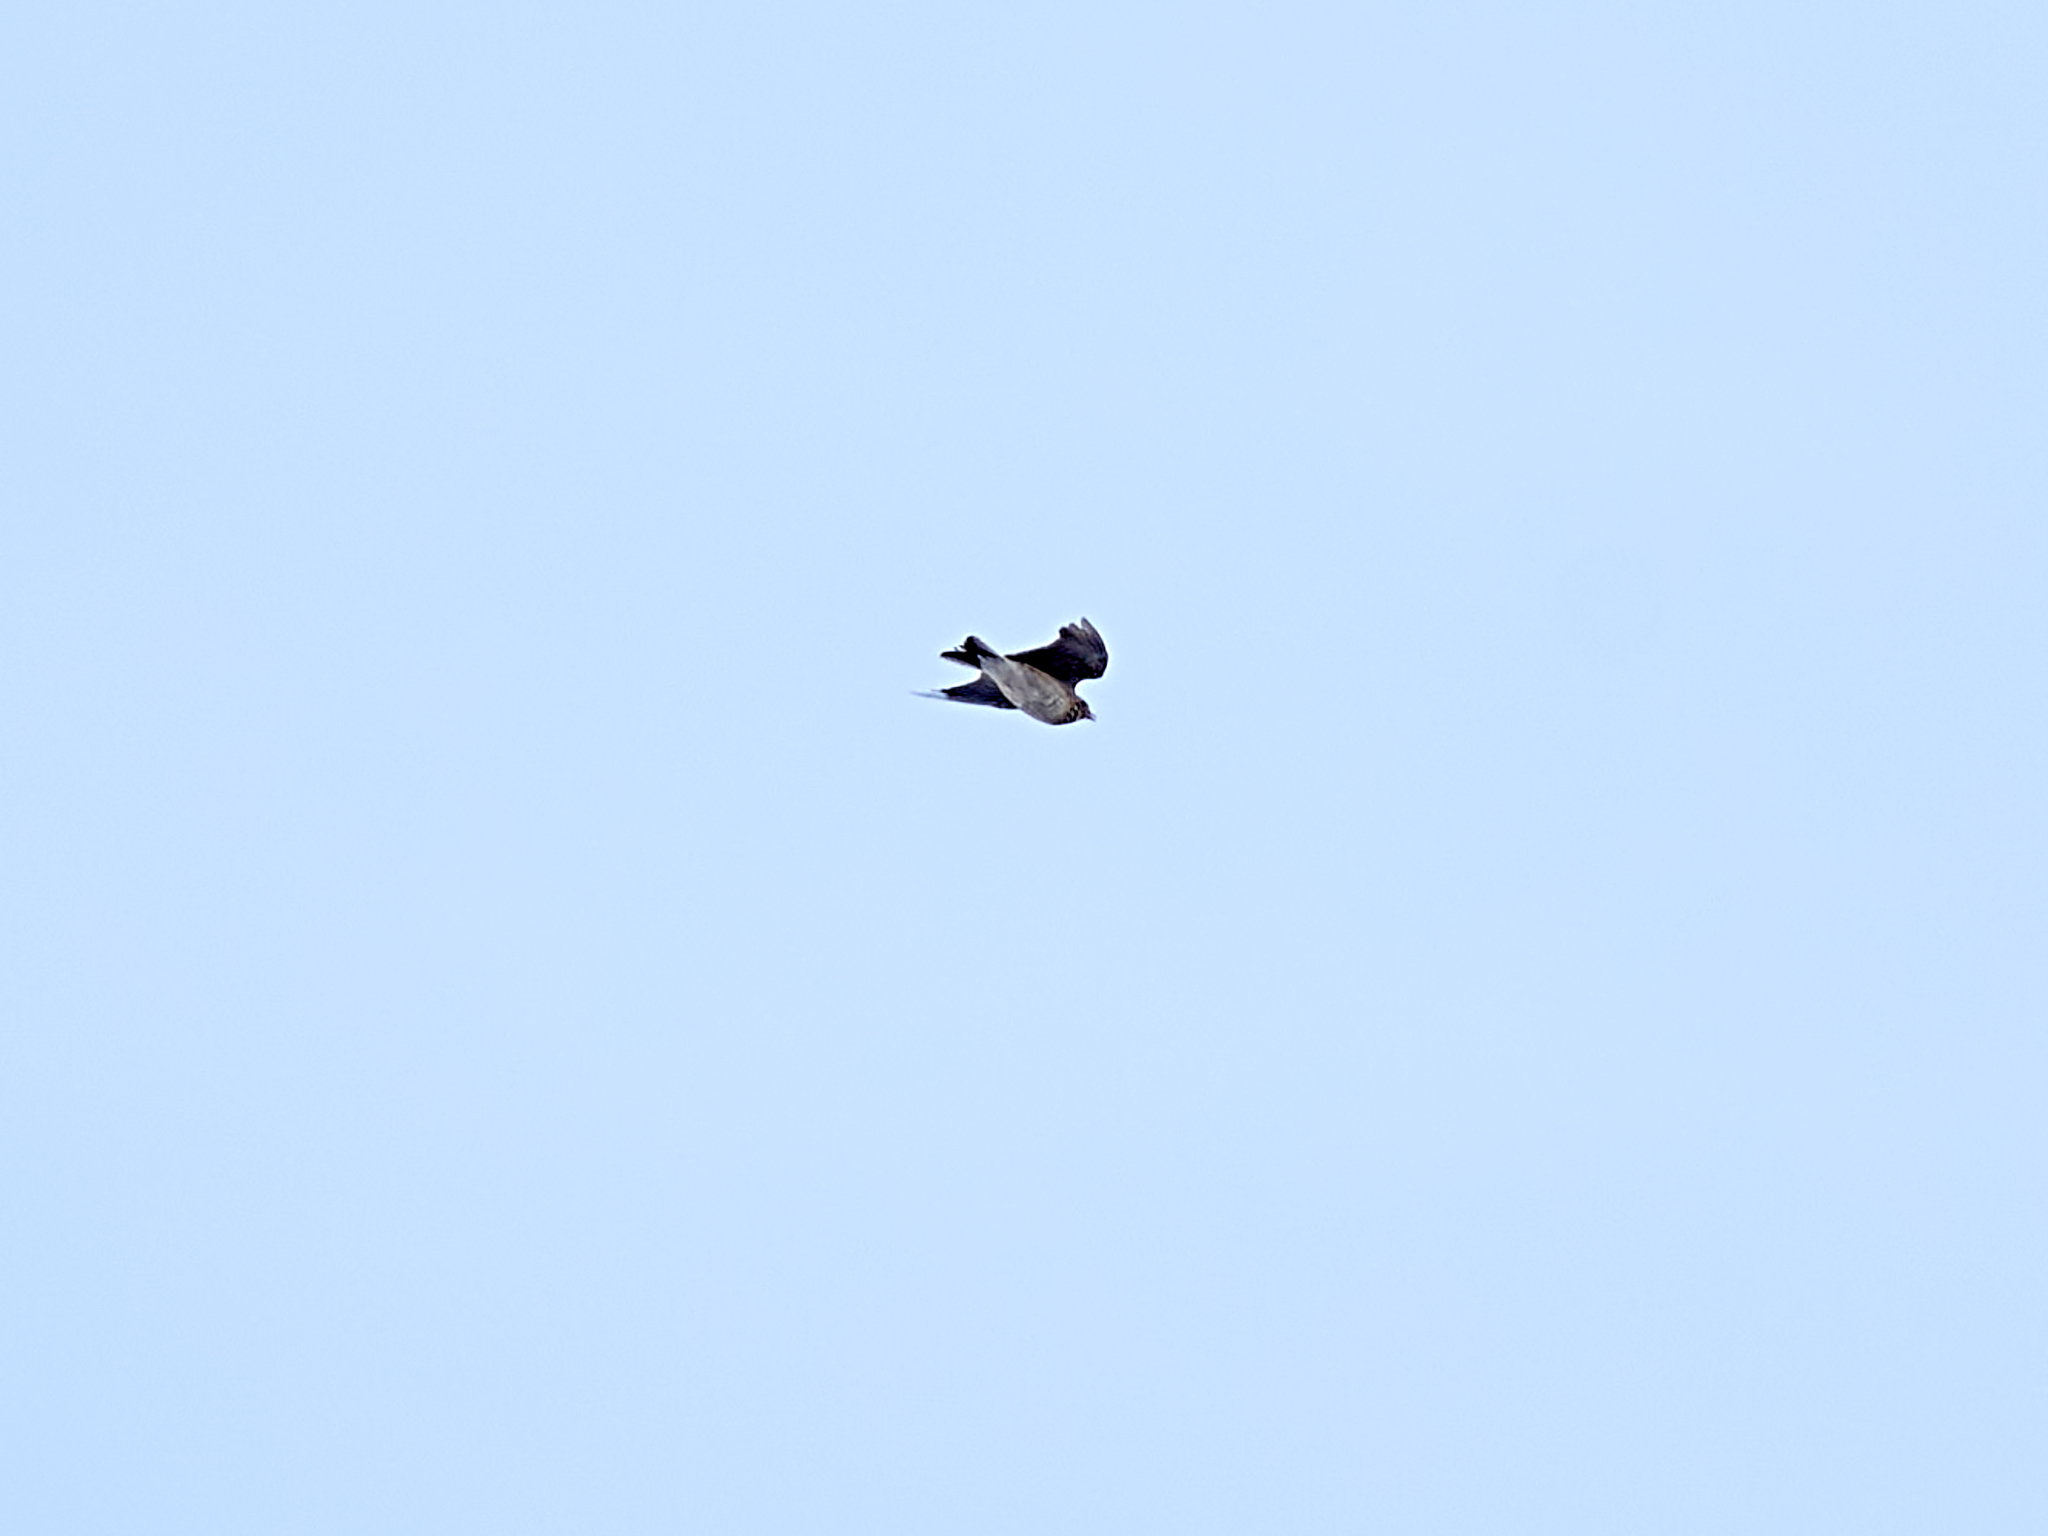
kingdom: Animalia
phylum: Chordata
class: Aves
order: Passeriformes
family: Alaudidae
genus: Alauda
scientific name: Alauda arvensis
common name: Eurasian skylark
